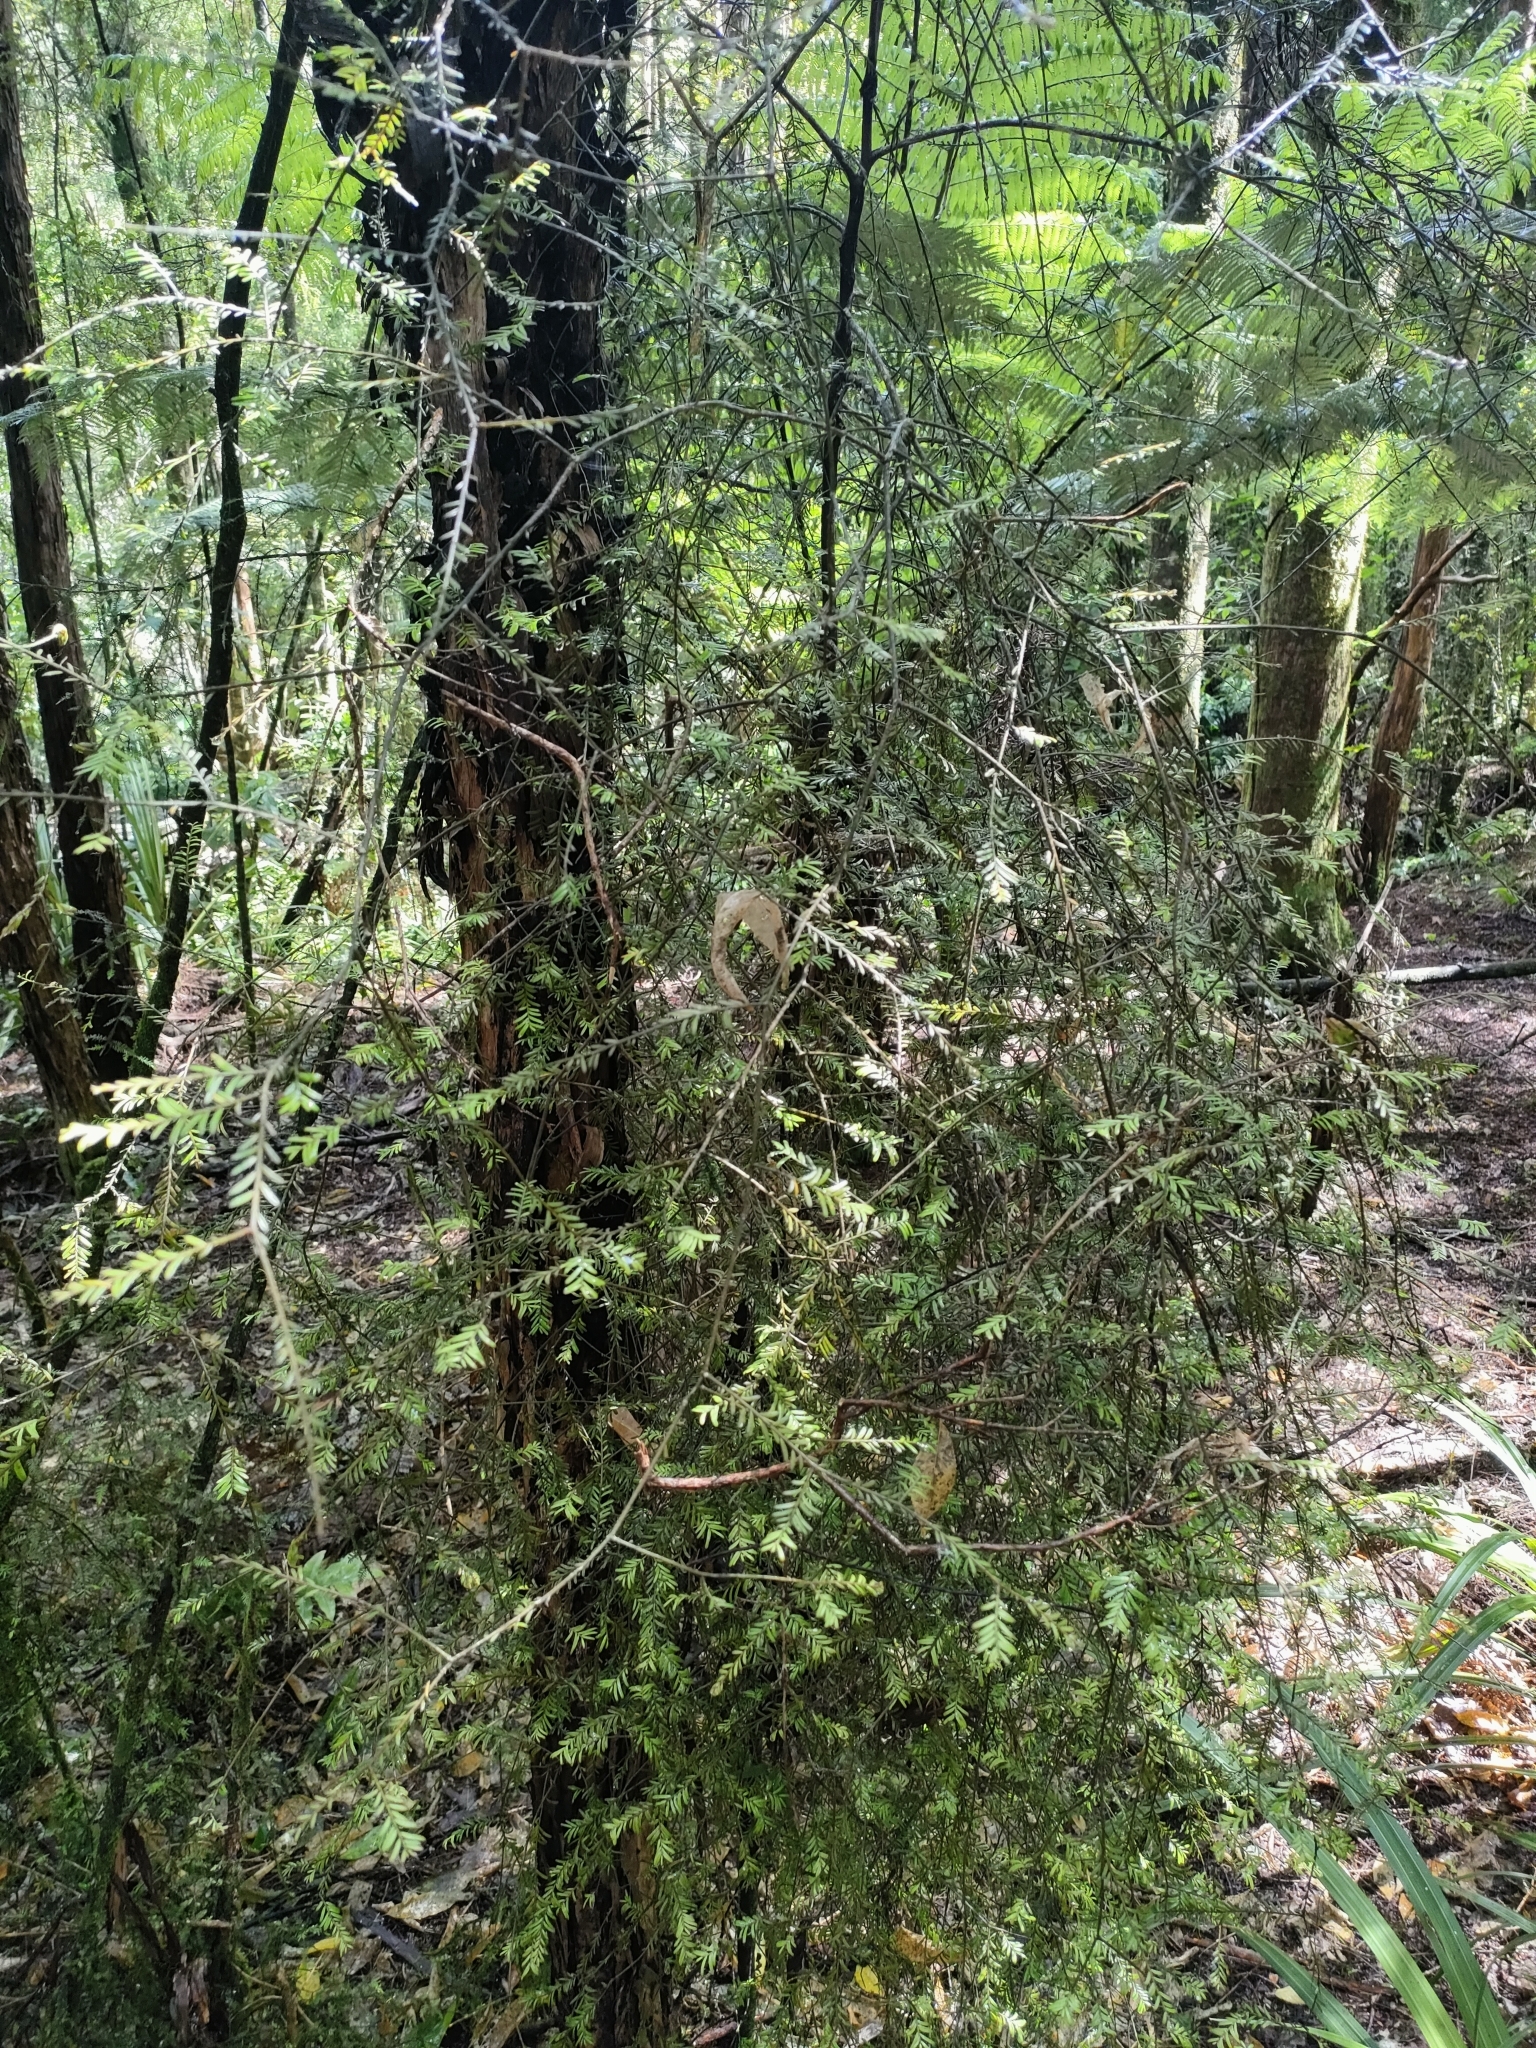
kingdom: Plantae
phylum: Tracheophyta
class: Pinopsida
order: Pinales
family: Podocarpaceae
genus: Prumnopitys
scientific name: Prumnopitys taxifolia
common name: Matai
